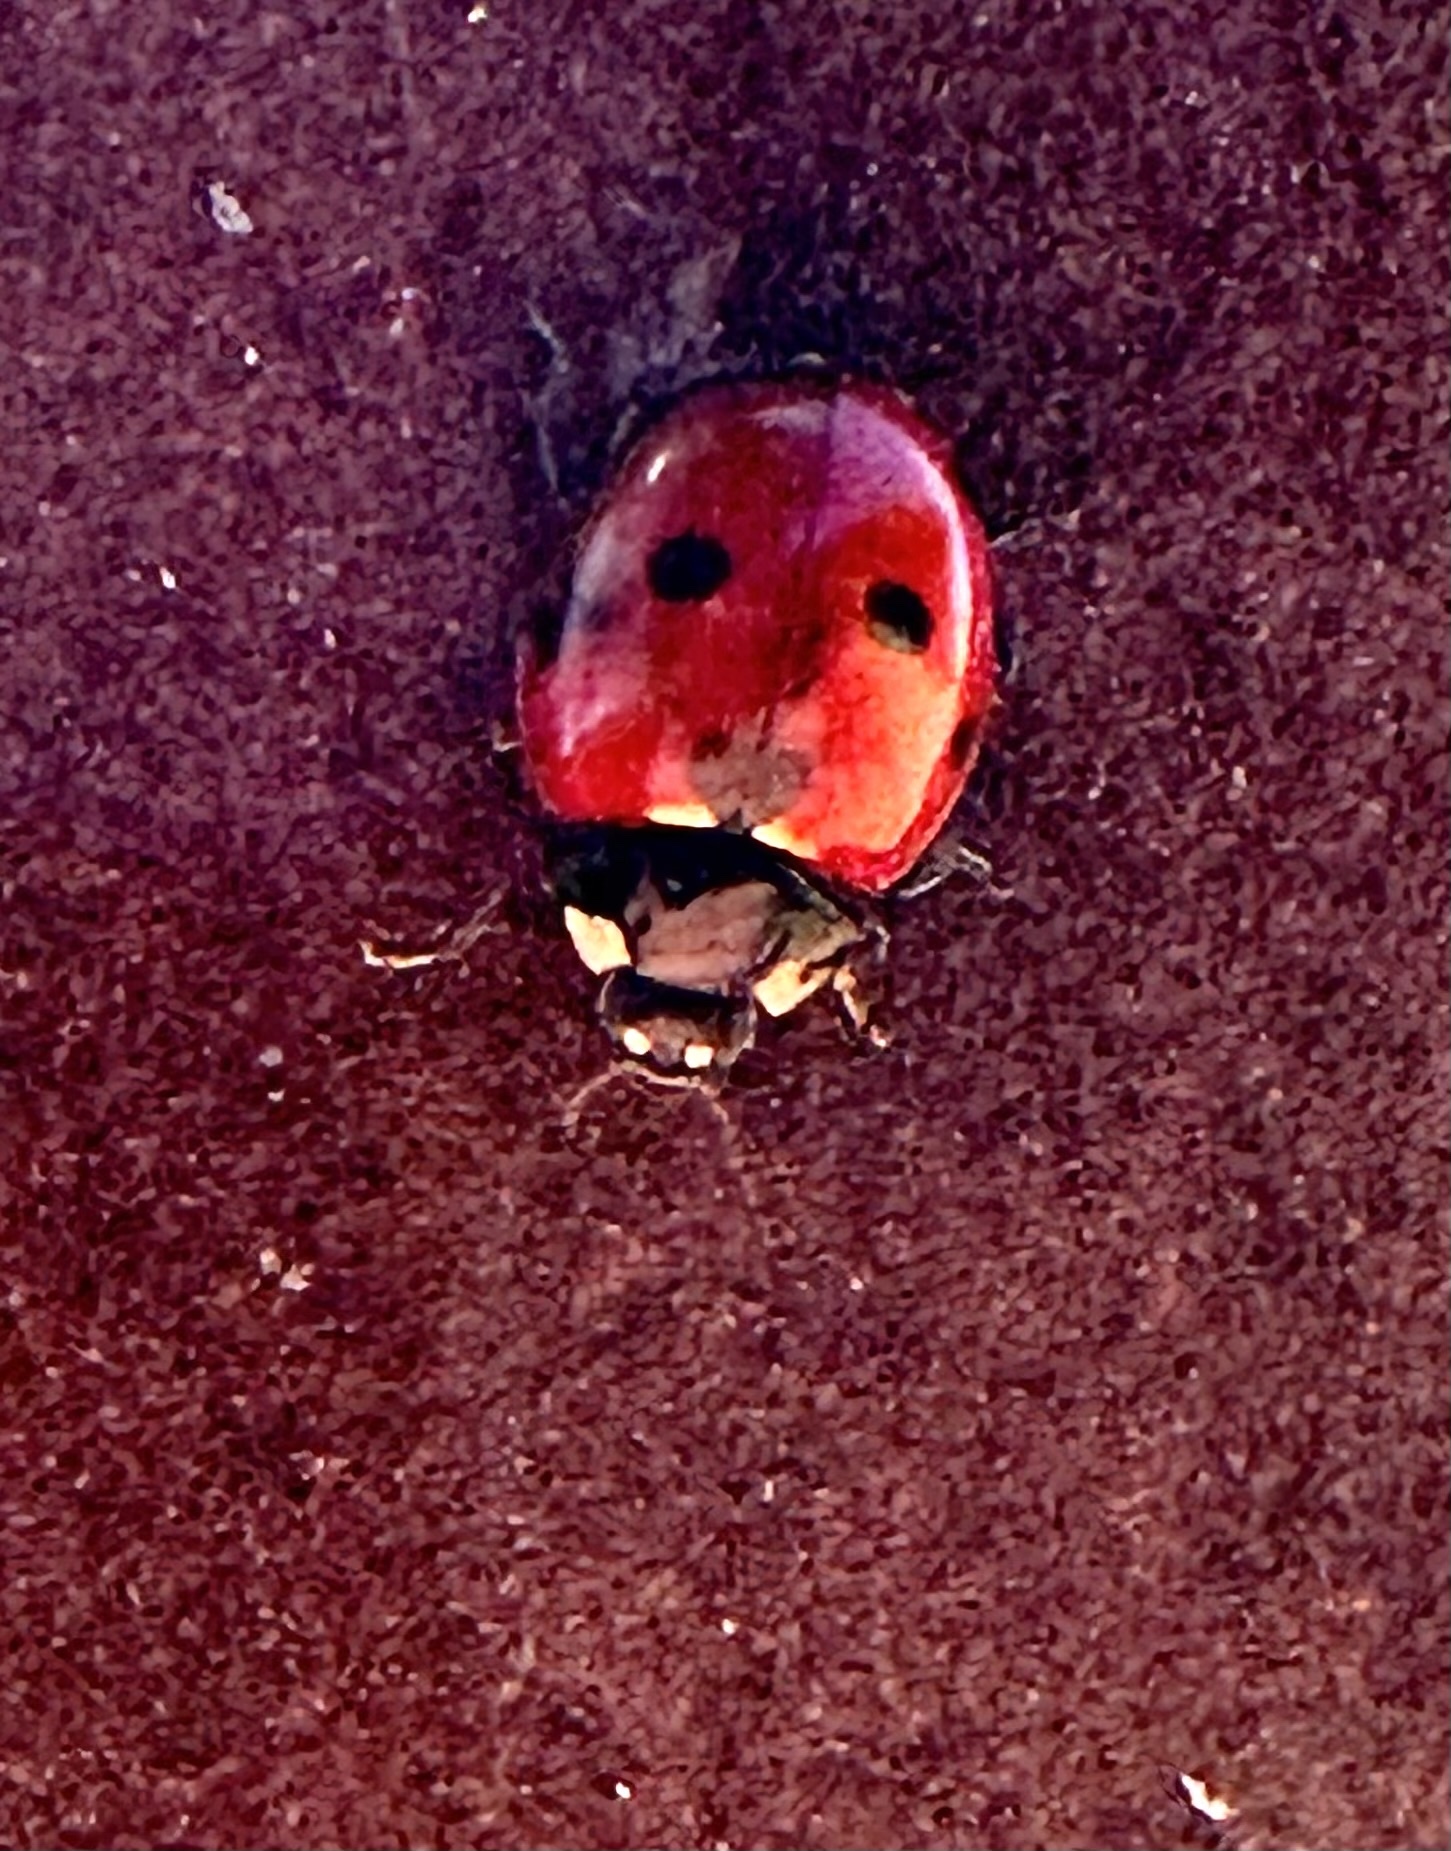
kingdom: Animalia
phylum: Arthropoda
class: Insecta
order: Coleoptera
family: Coccinellidae
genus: Coccinella
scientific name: Coccinella septempunctata
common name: Sevenspotted lady beetle
